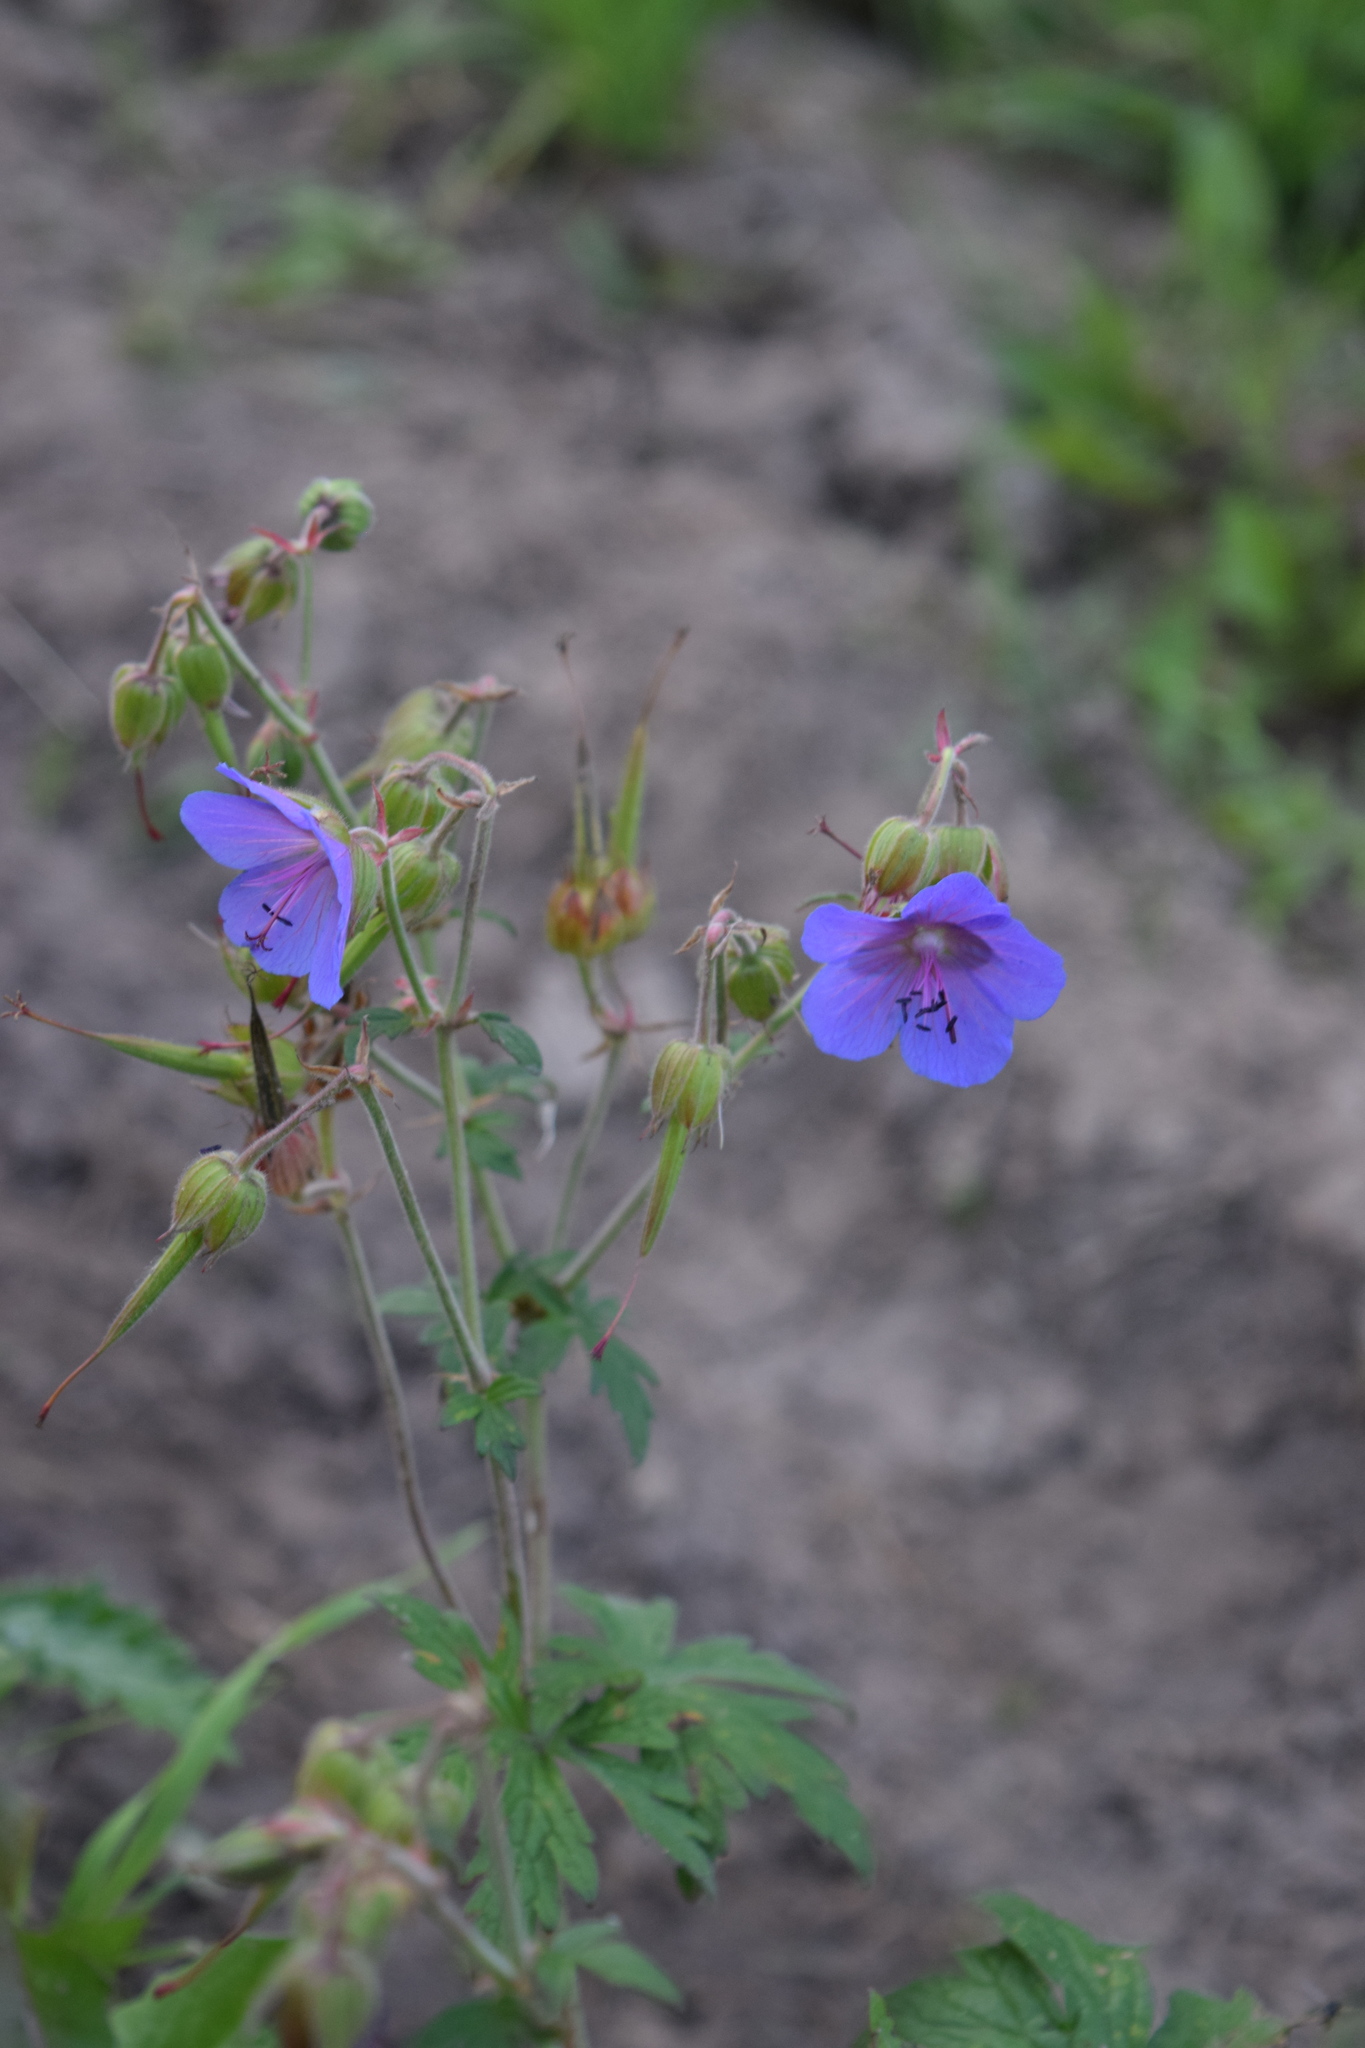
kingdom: Plantae
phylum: Tracheophyta
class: Magnoliopsida
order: Geraniales
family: Geraniaceae
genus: Geranium
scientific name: Geranium pratense
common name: Meadow crane's-bill
